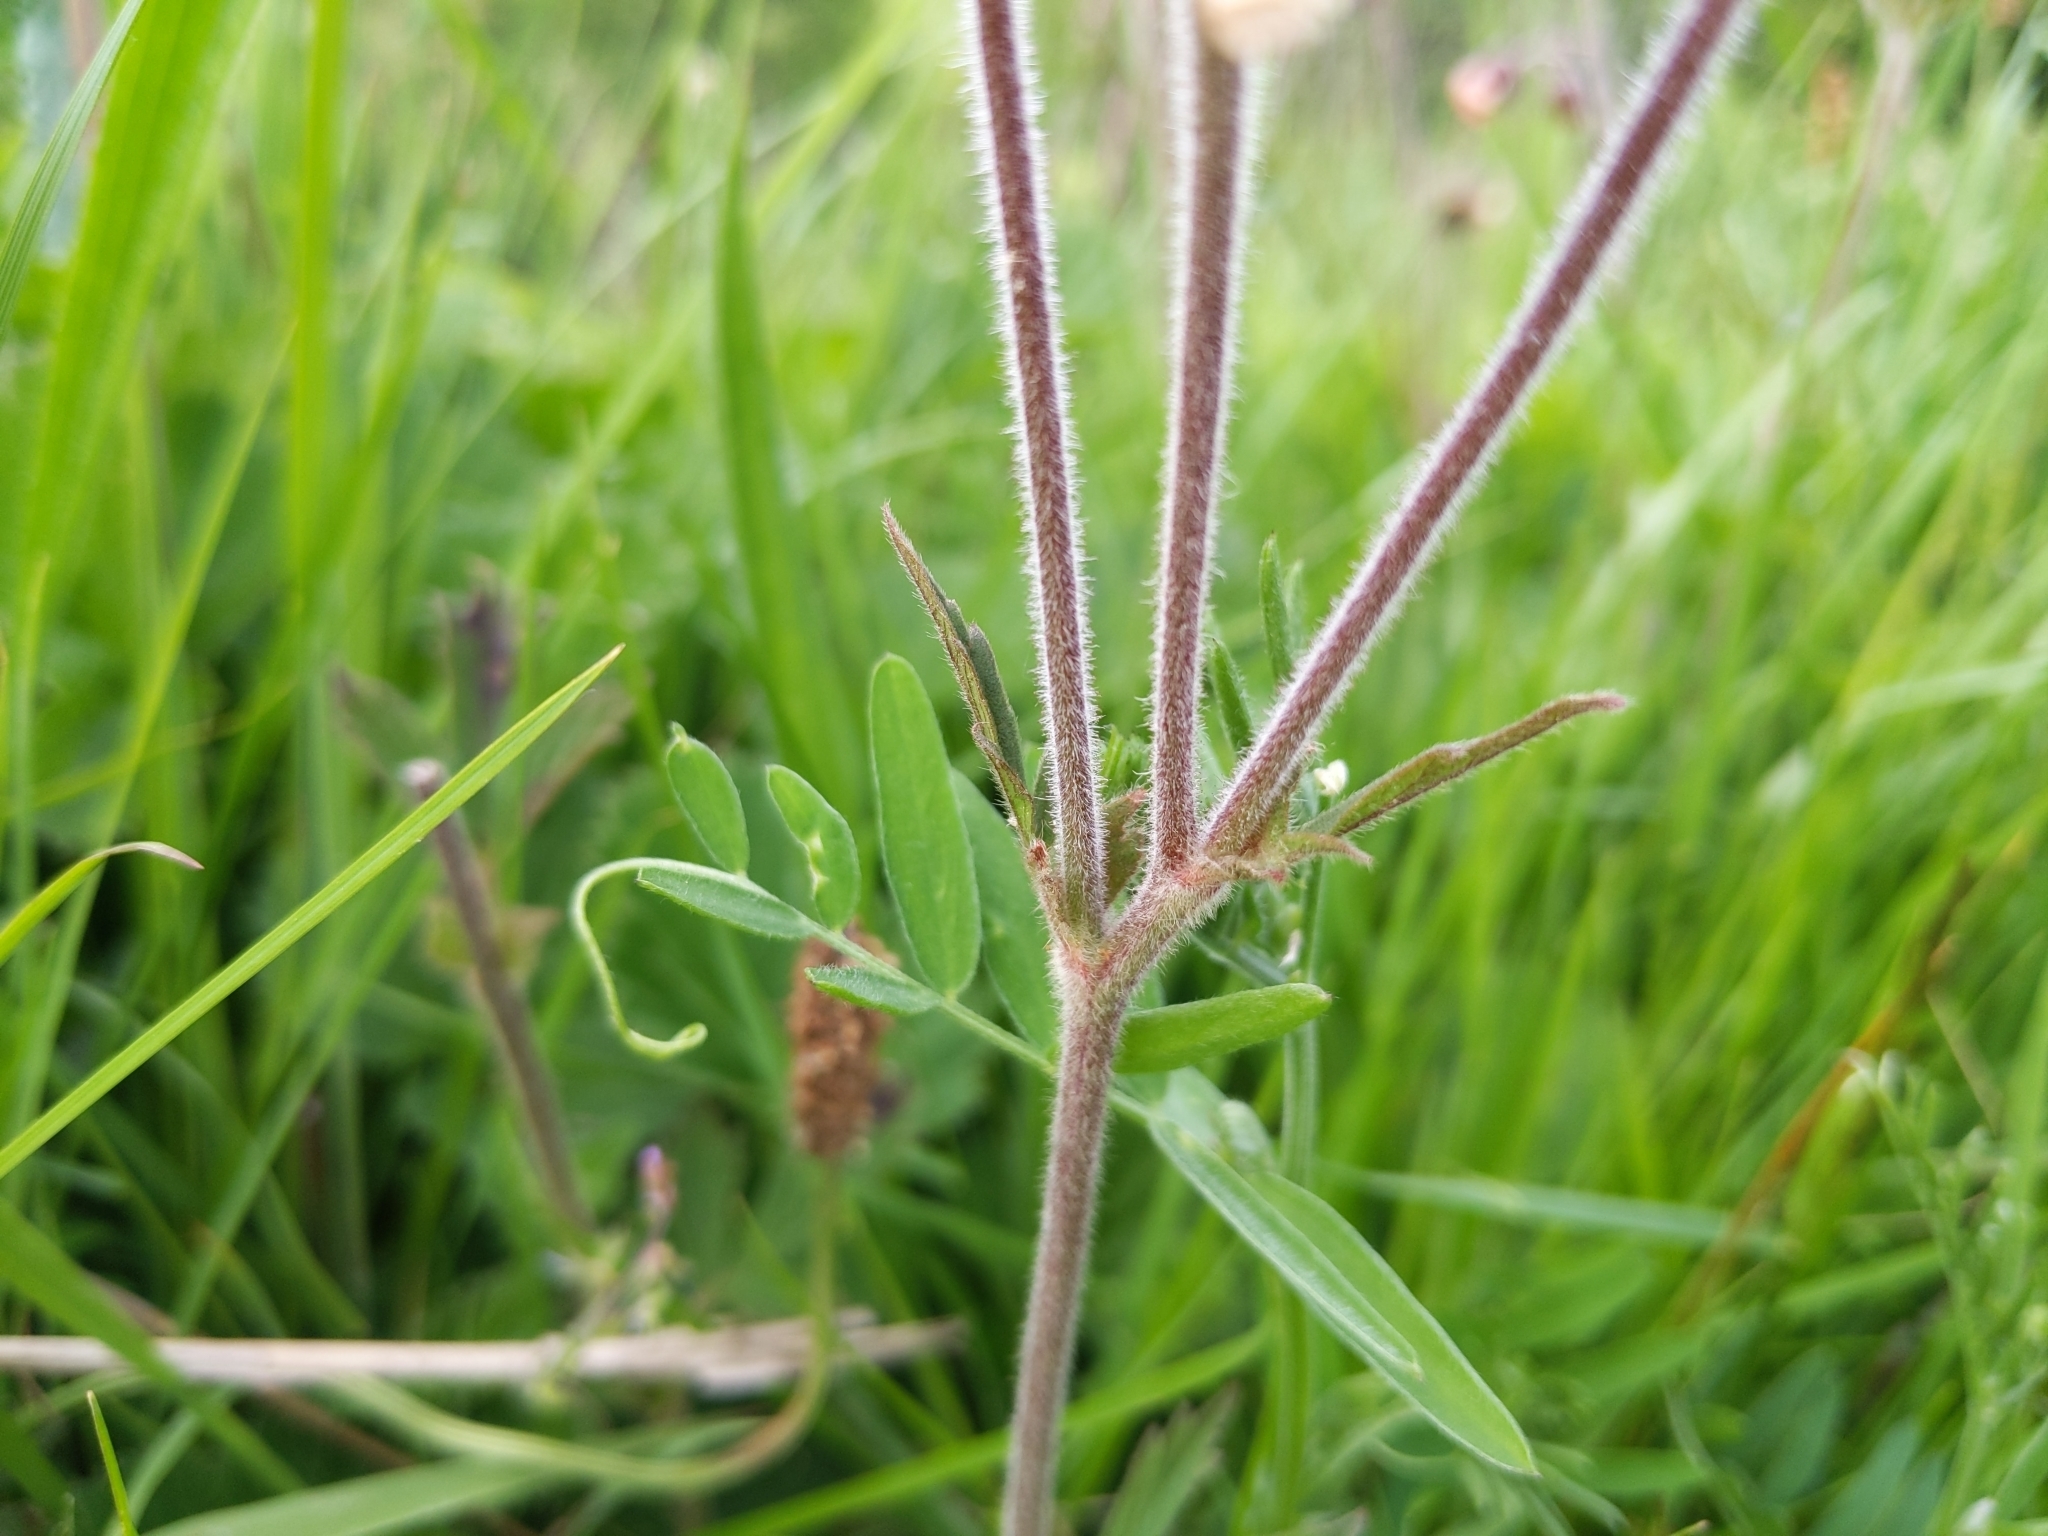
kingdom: Plantae
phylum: Tracheophyta
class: Magnoliopsida
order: Rosales
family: Rosaceae
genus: Geum
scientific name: Geum rivale
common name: Water avens
